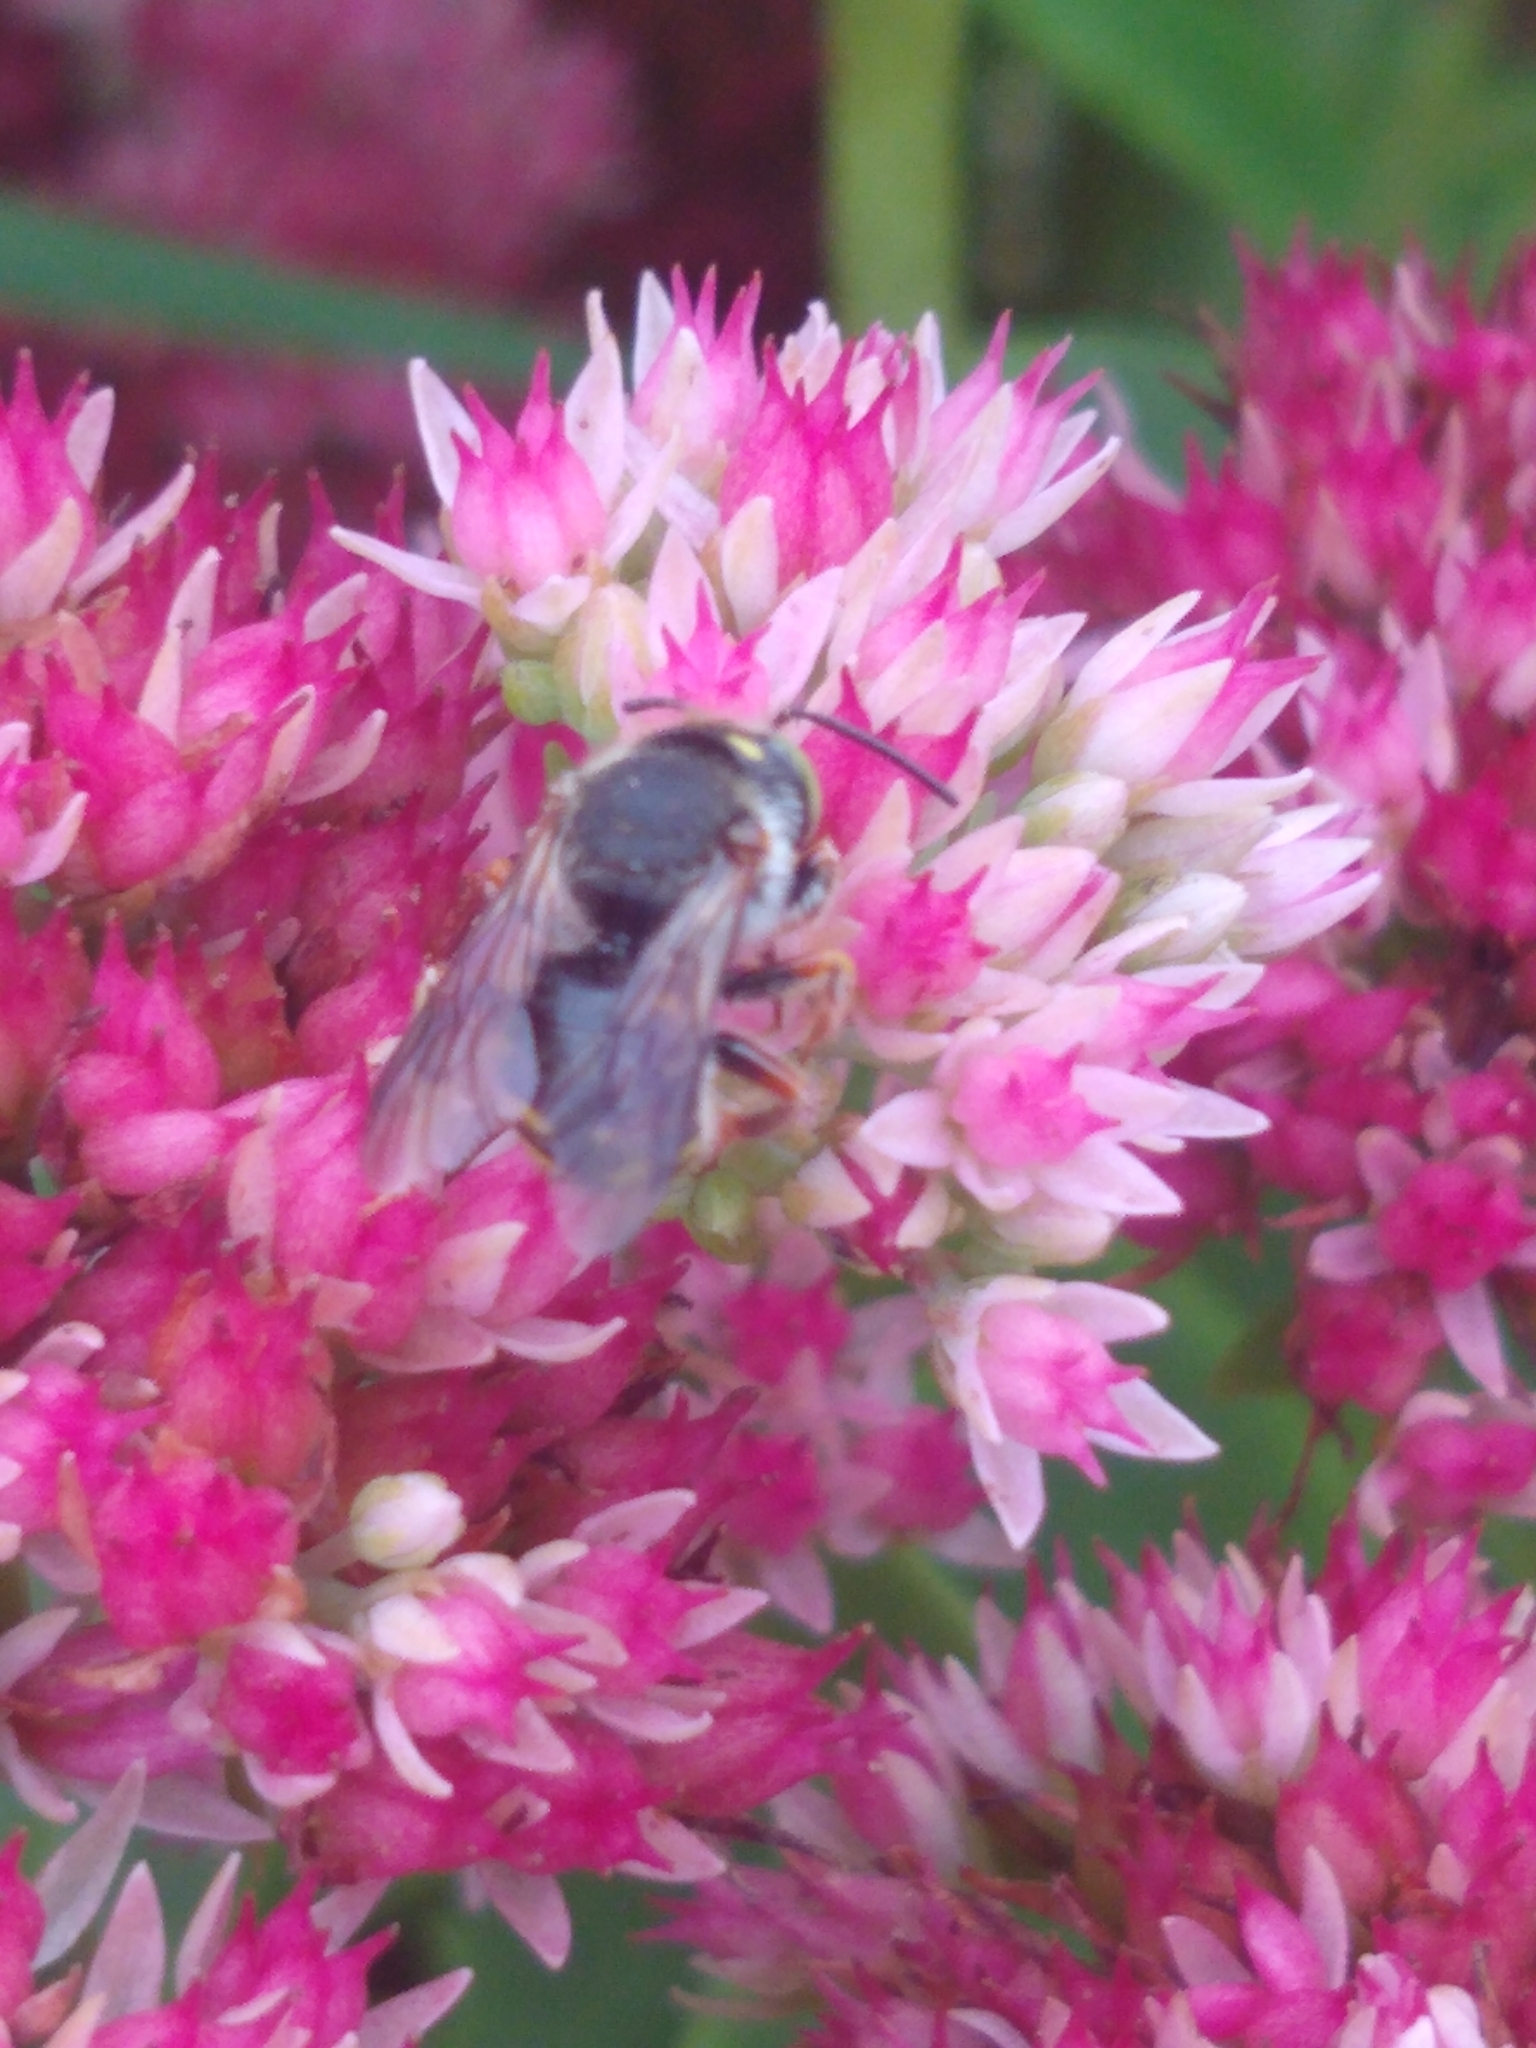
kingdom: Animalia
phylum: Arthropoda
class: Insecta
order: Hymenoptera
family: Megachilidae
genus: Anthidium
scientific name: Anthidium oblongatum
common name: Oblong wool carder bee
